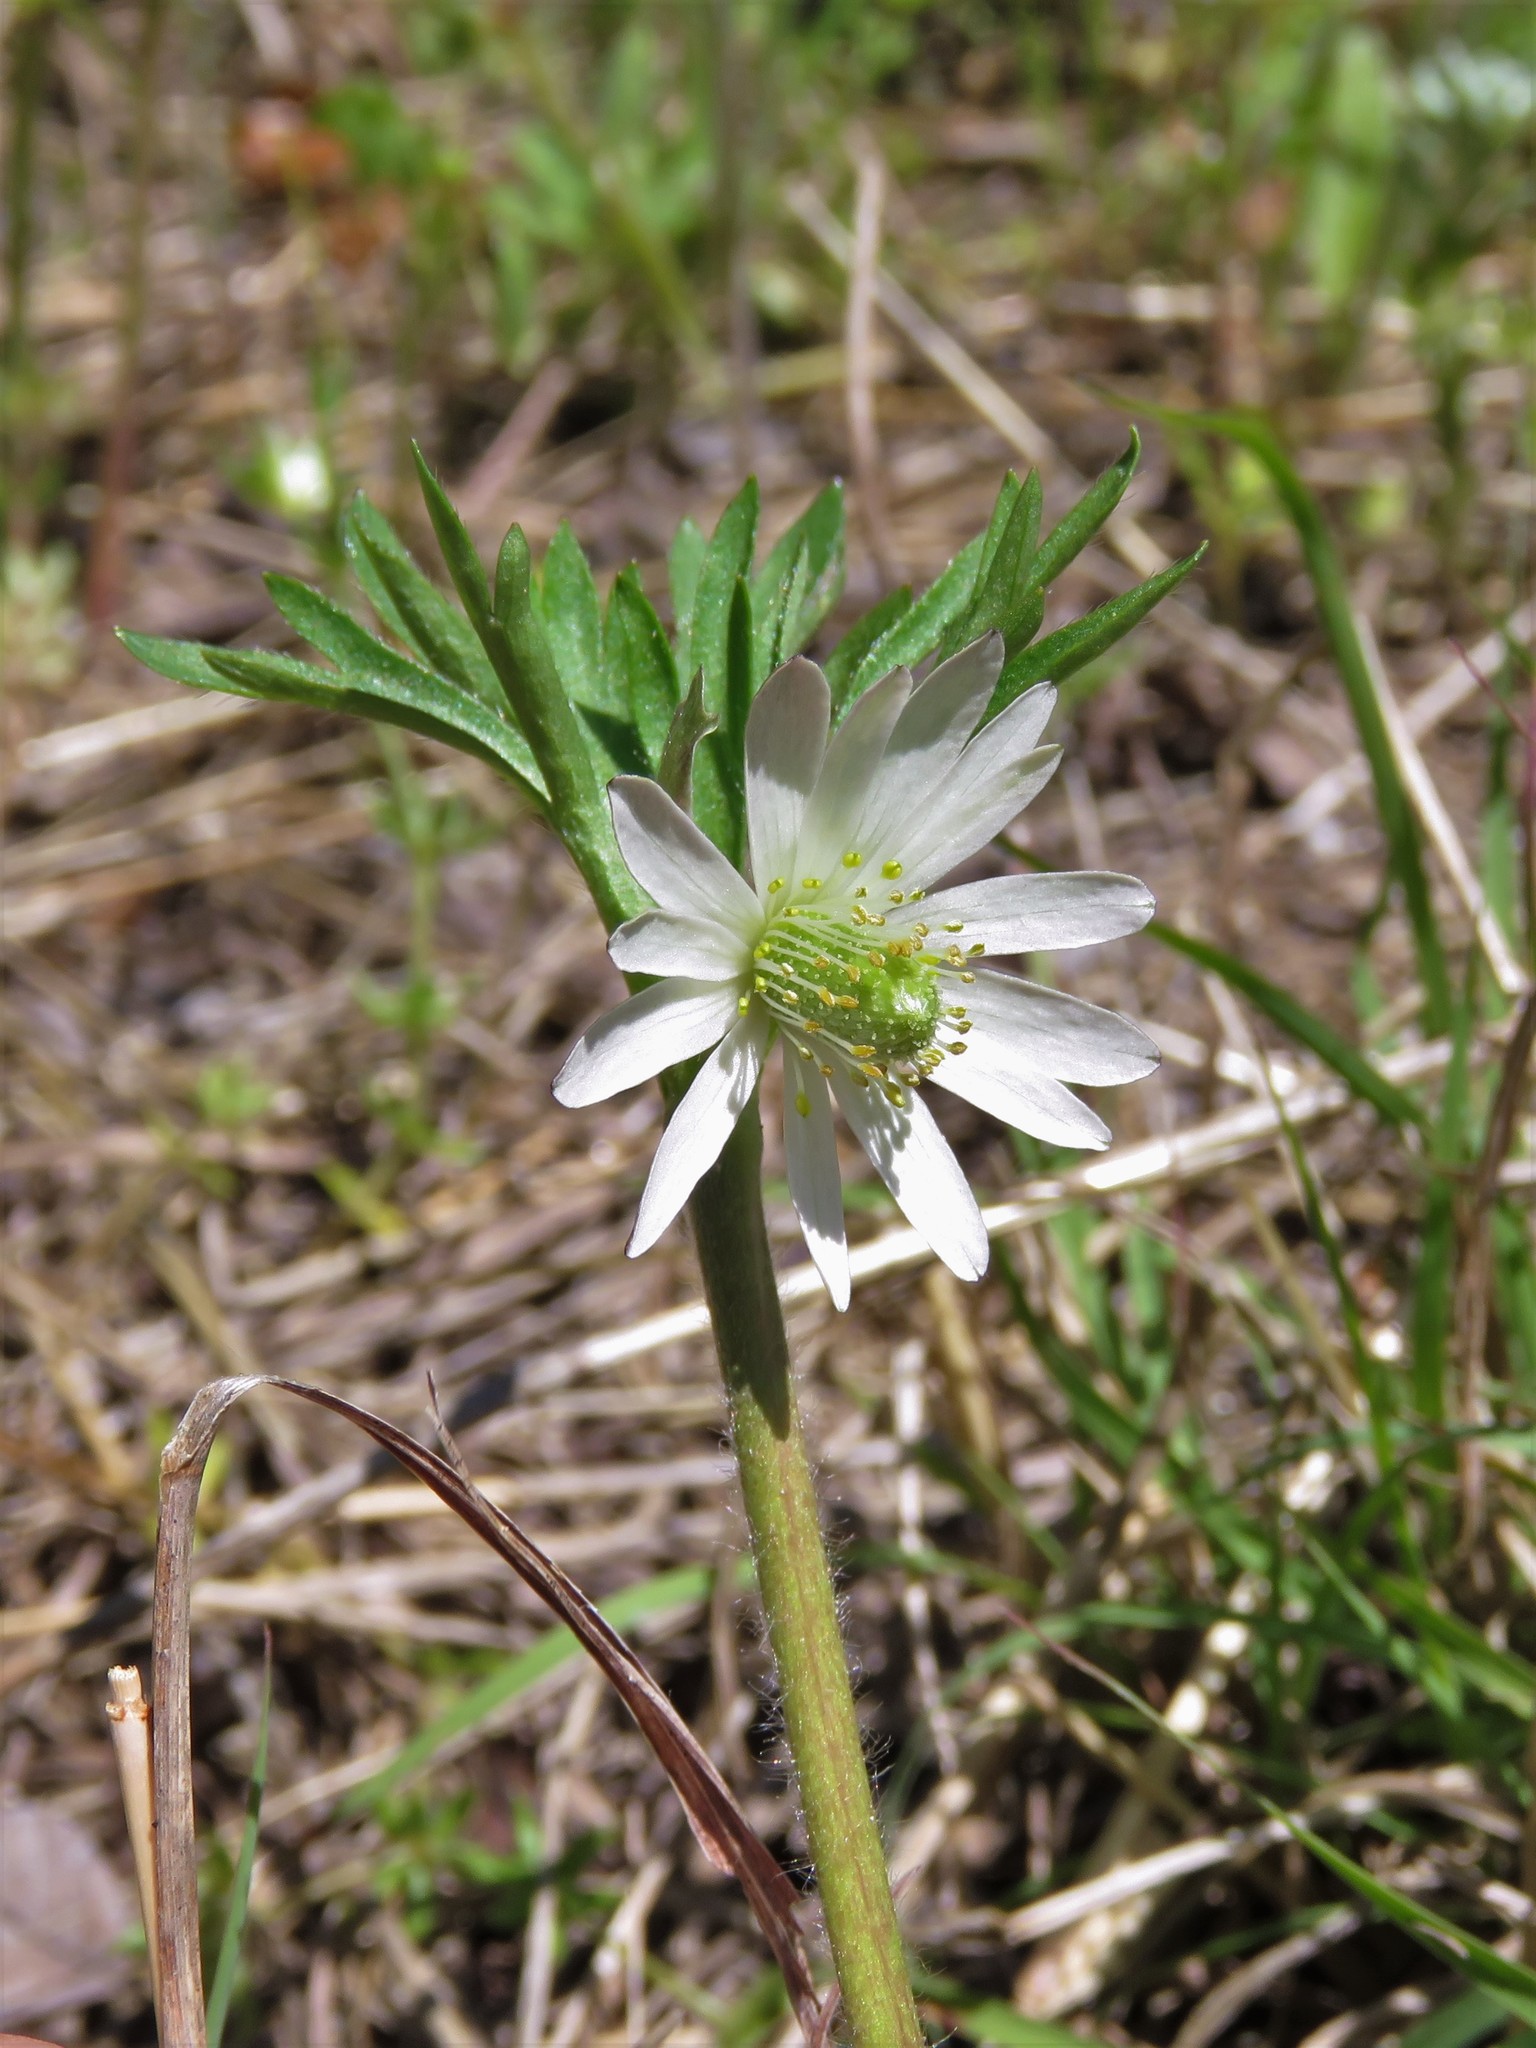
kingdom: Plantae
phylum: Tracheophyta
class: Magnoliopsida
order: Ranunculales
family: Ranunculaceae
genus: Anemone
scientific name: Anemone berlandieri
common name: Ten-petal anemone
